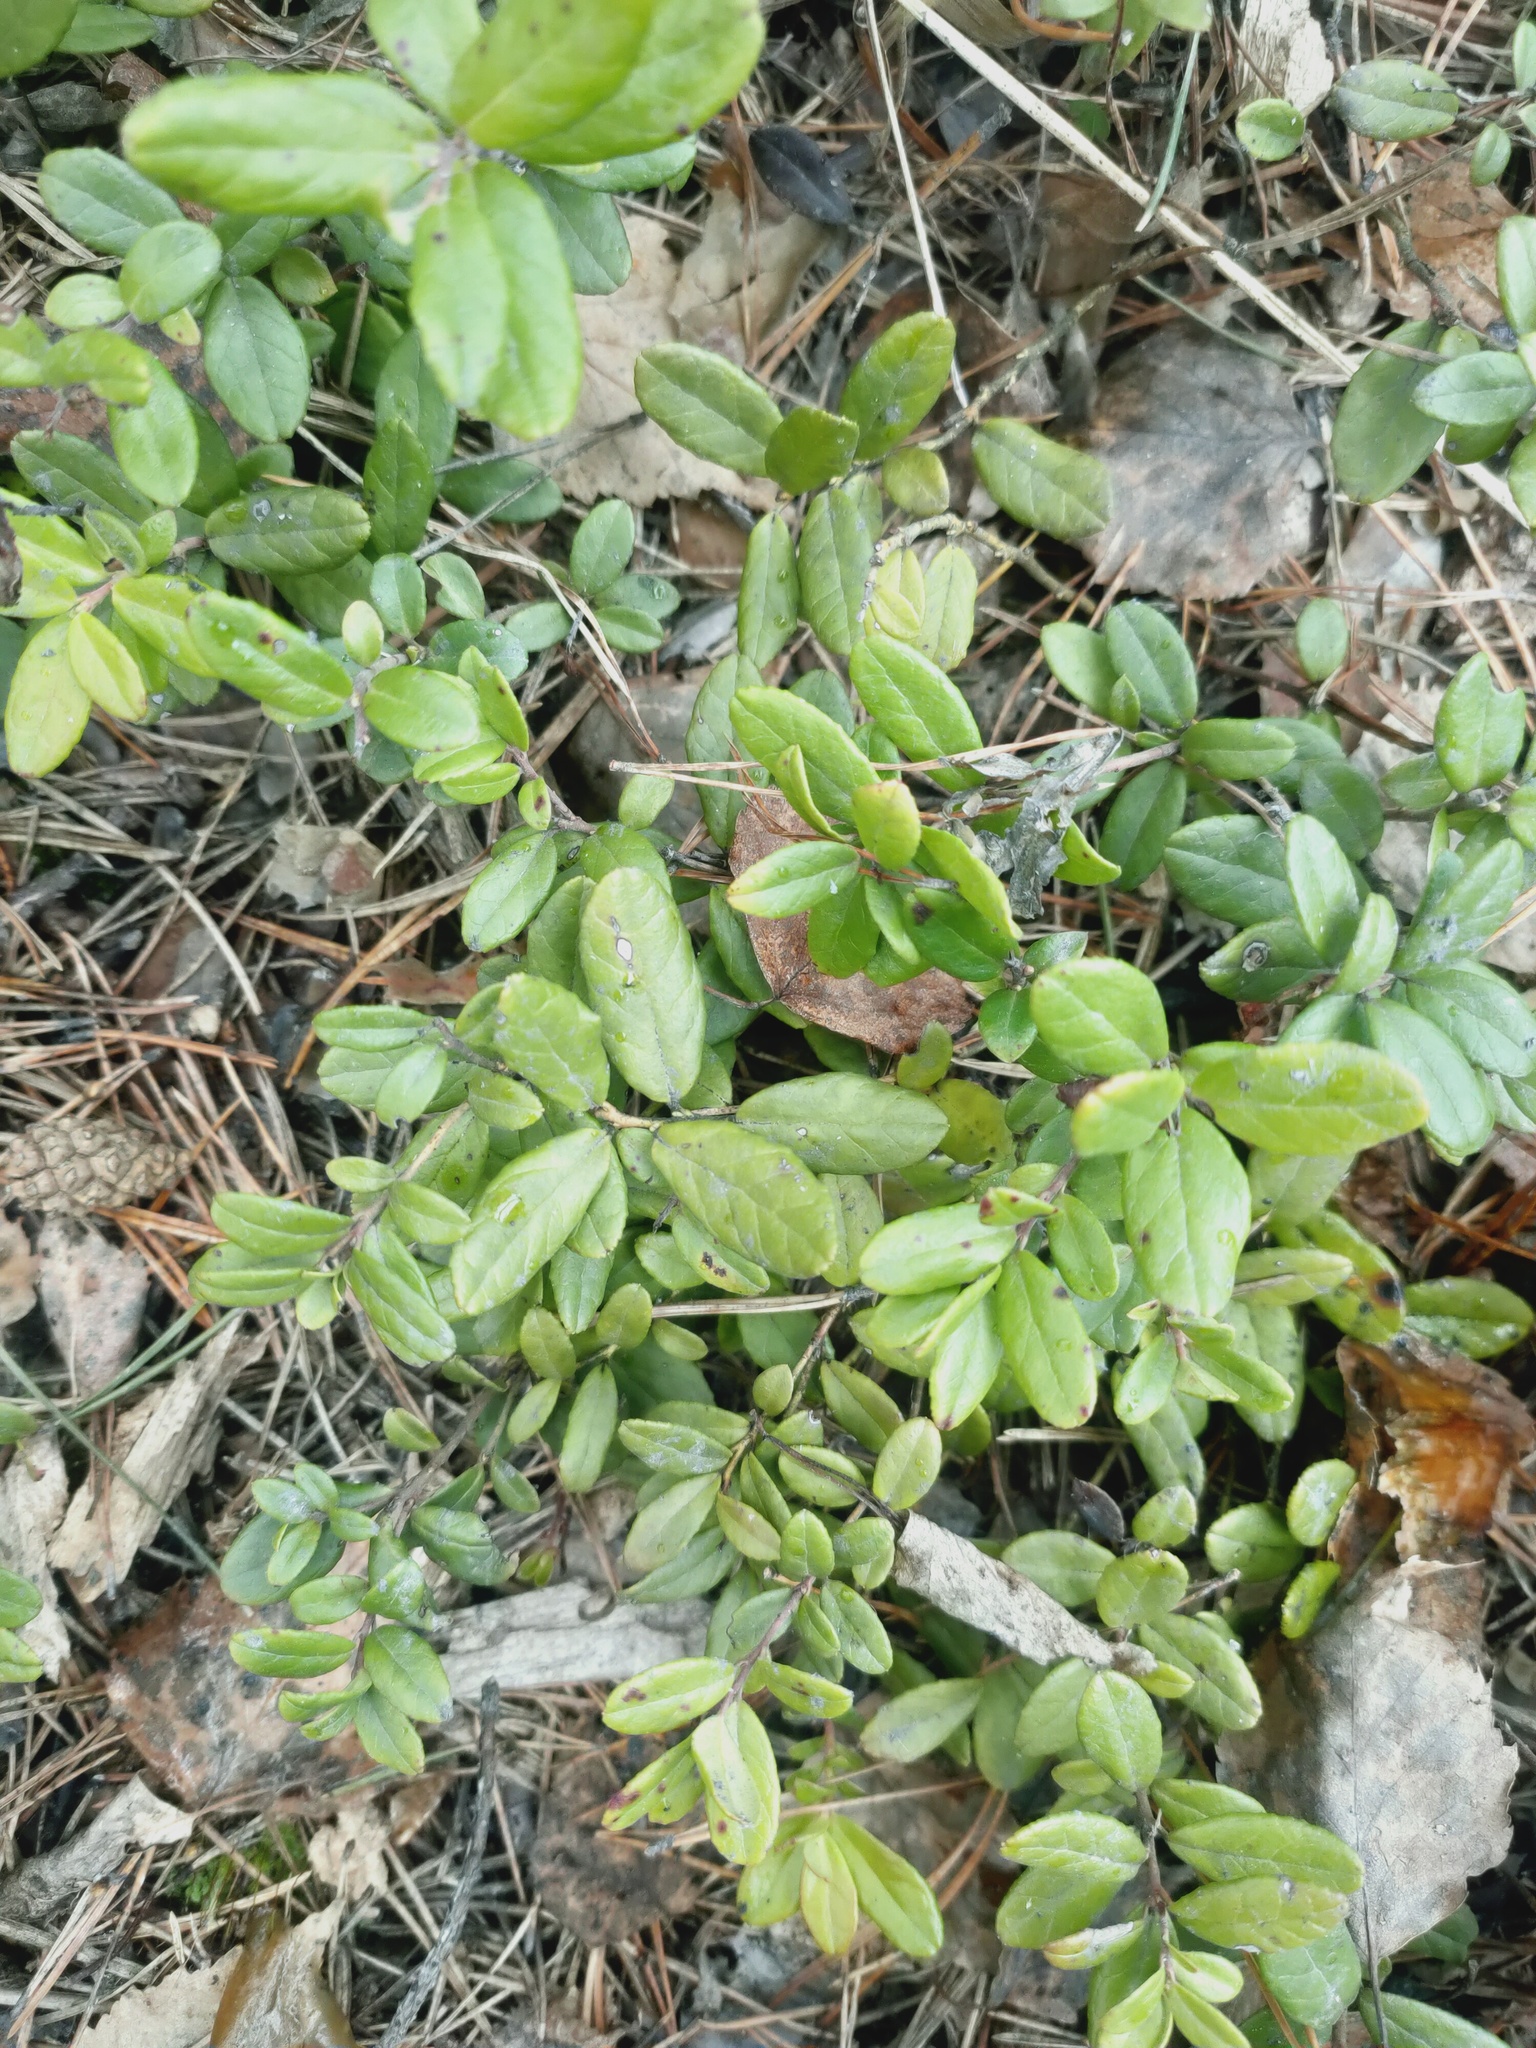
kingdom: Plantae
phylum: Tracheophyta
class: Magnoliopsida
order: Ericales
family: Ericaceae
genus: Vaccinium
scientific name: Vaccinium vitis-idaea
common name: Cowberry
